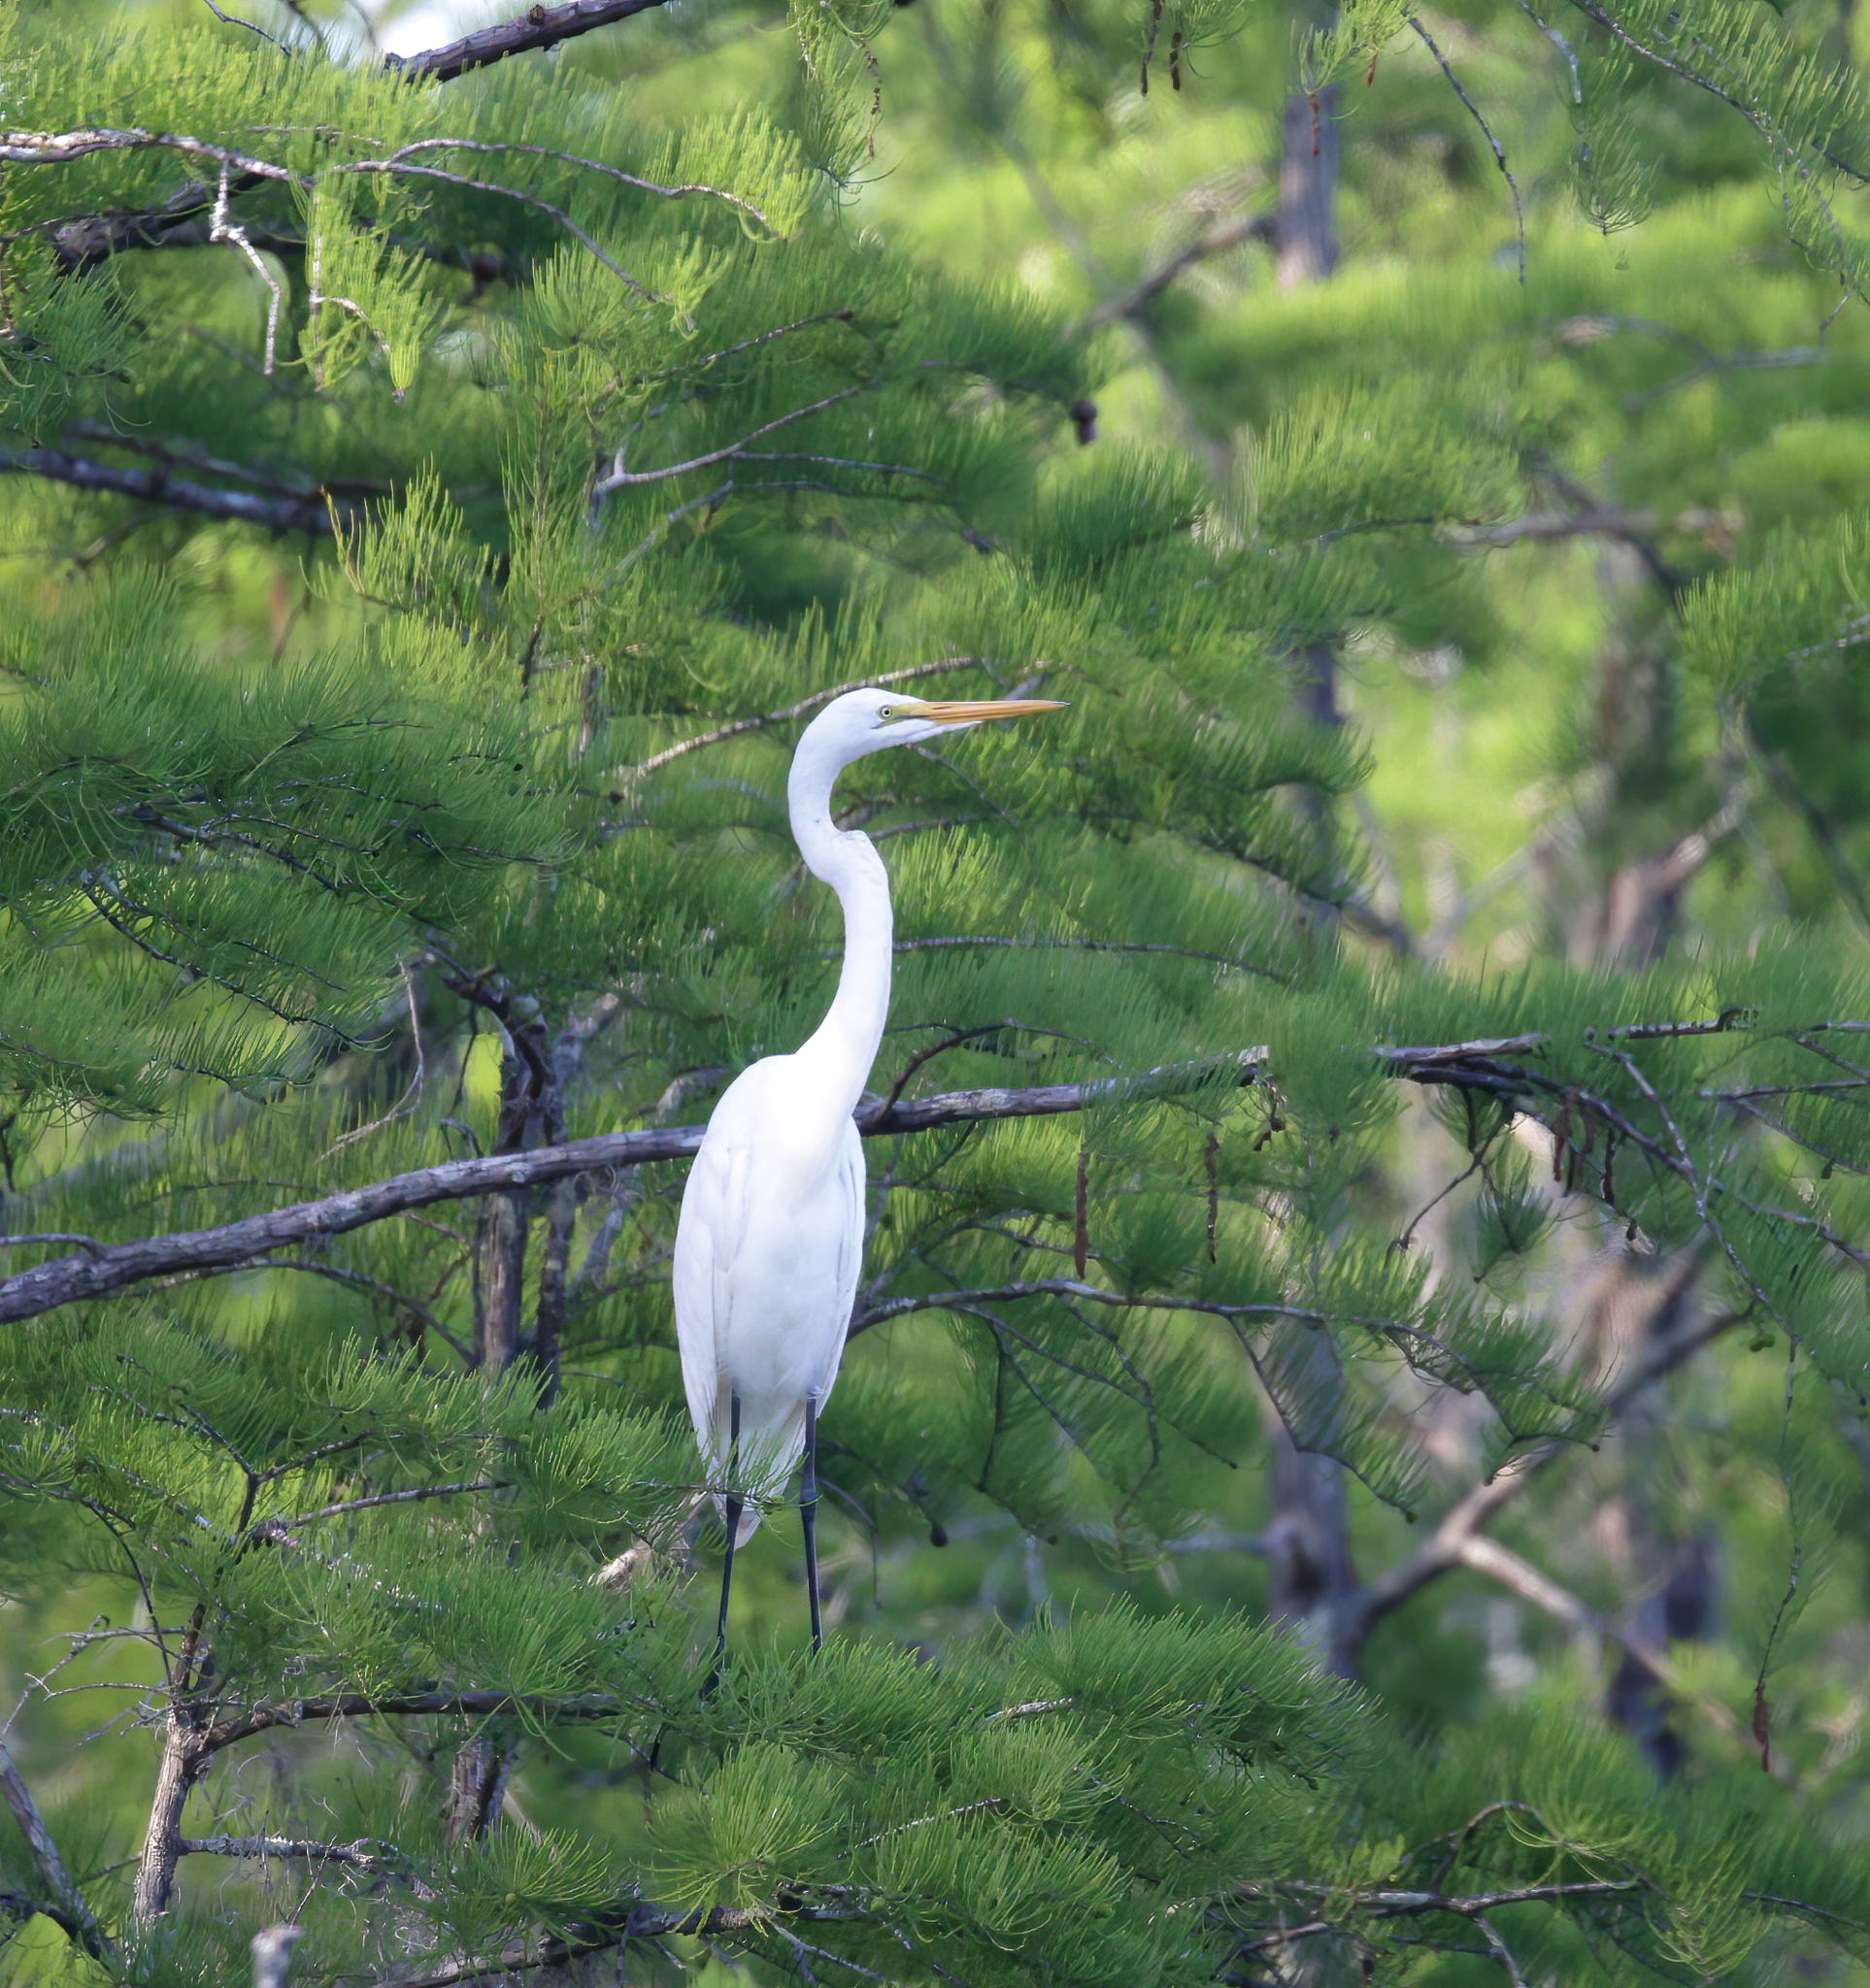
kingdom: Animalia
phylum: Chordata
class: Aves
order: Pelecaniformes
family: Ardeidae
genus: Ardea
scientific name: Ardea alba
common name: Great egret
